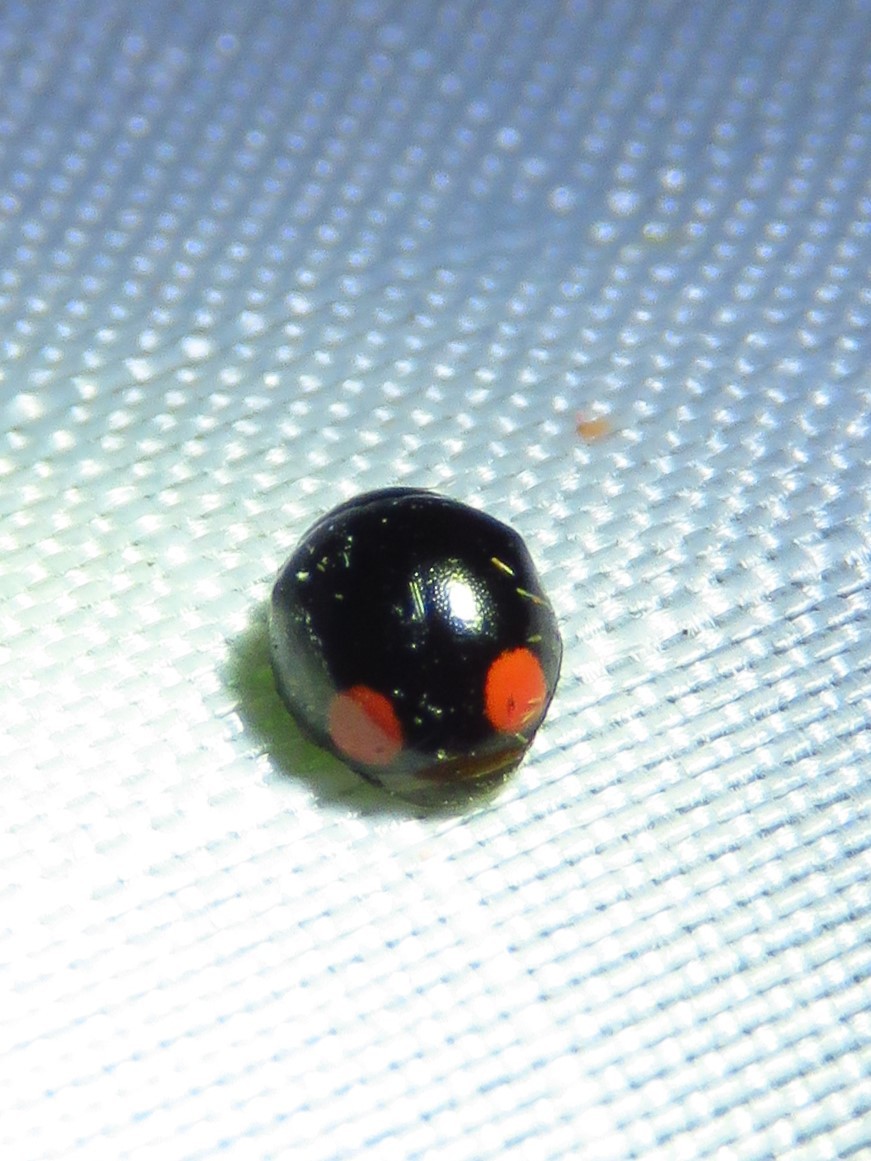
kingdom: Animalia
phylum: Arthropoda
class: Insecta
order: Coleoptera
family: Coccinellidae
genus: Hyperaspis
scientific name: Hyperaspis bigeminata
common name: Bigeminate sigil lady beetle
